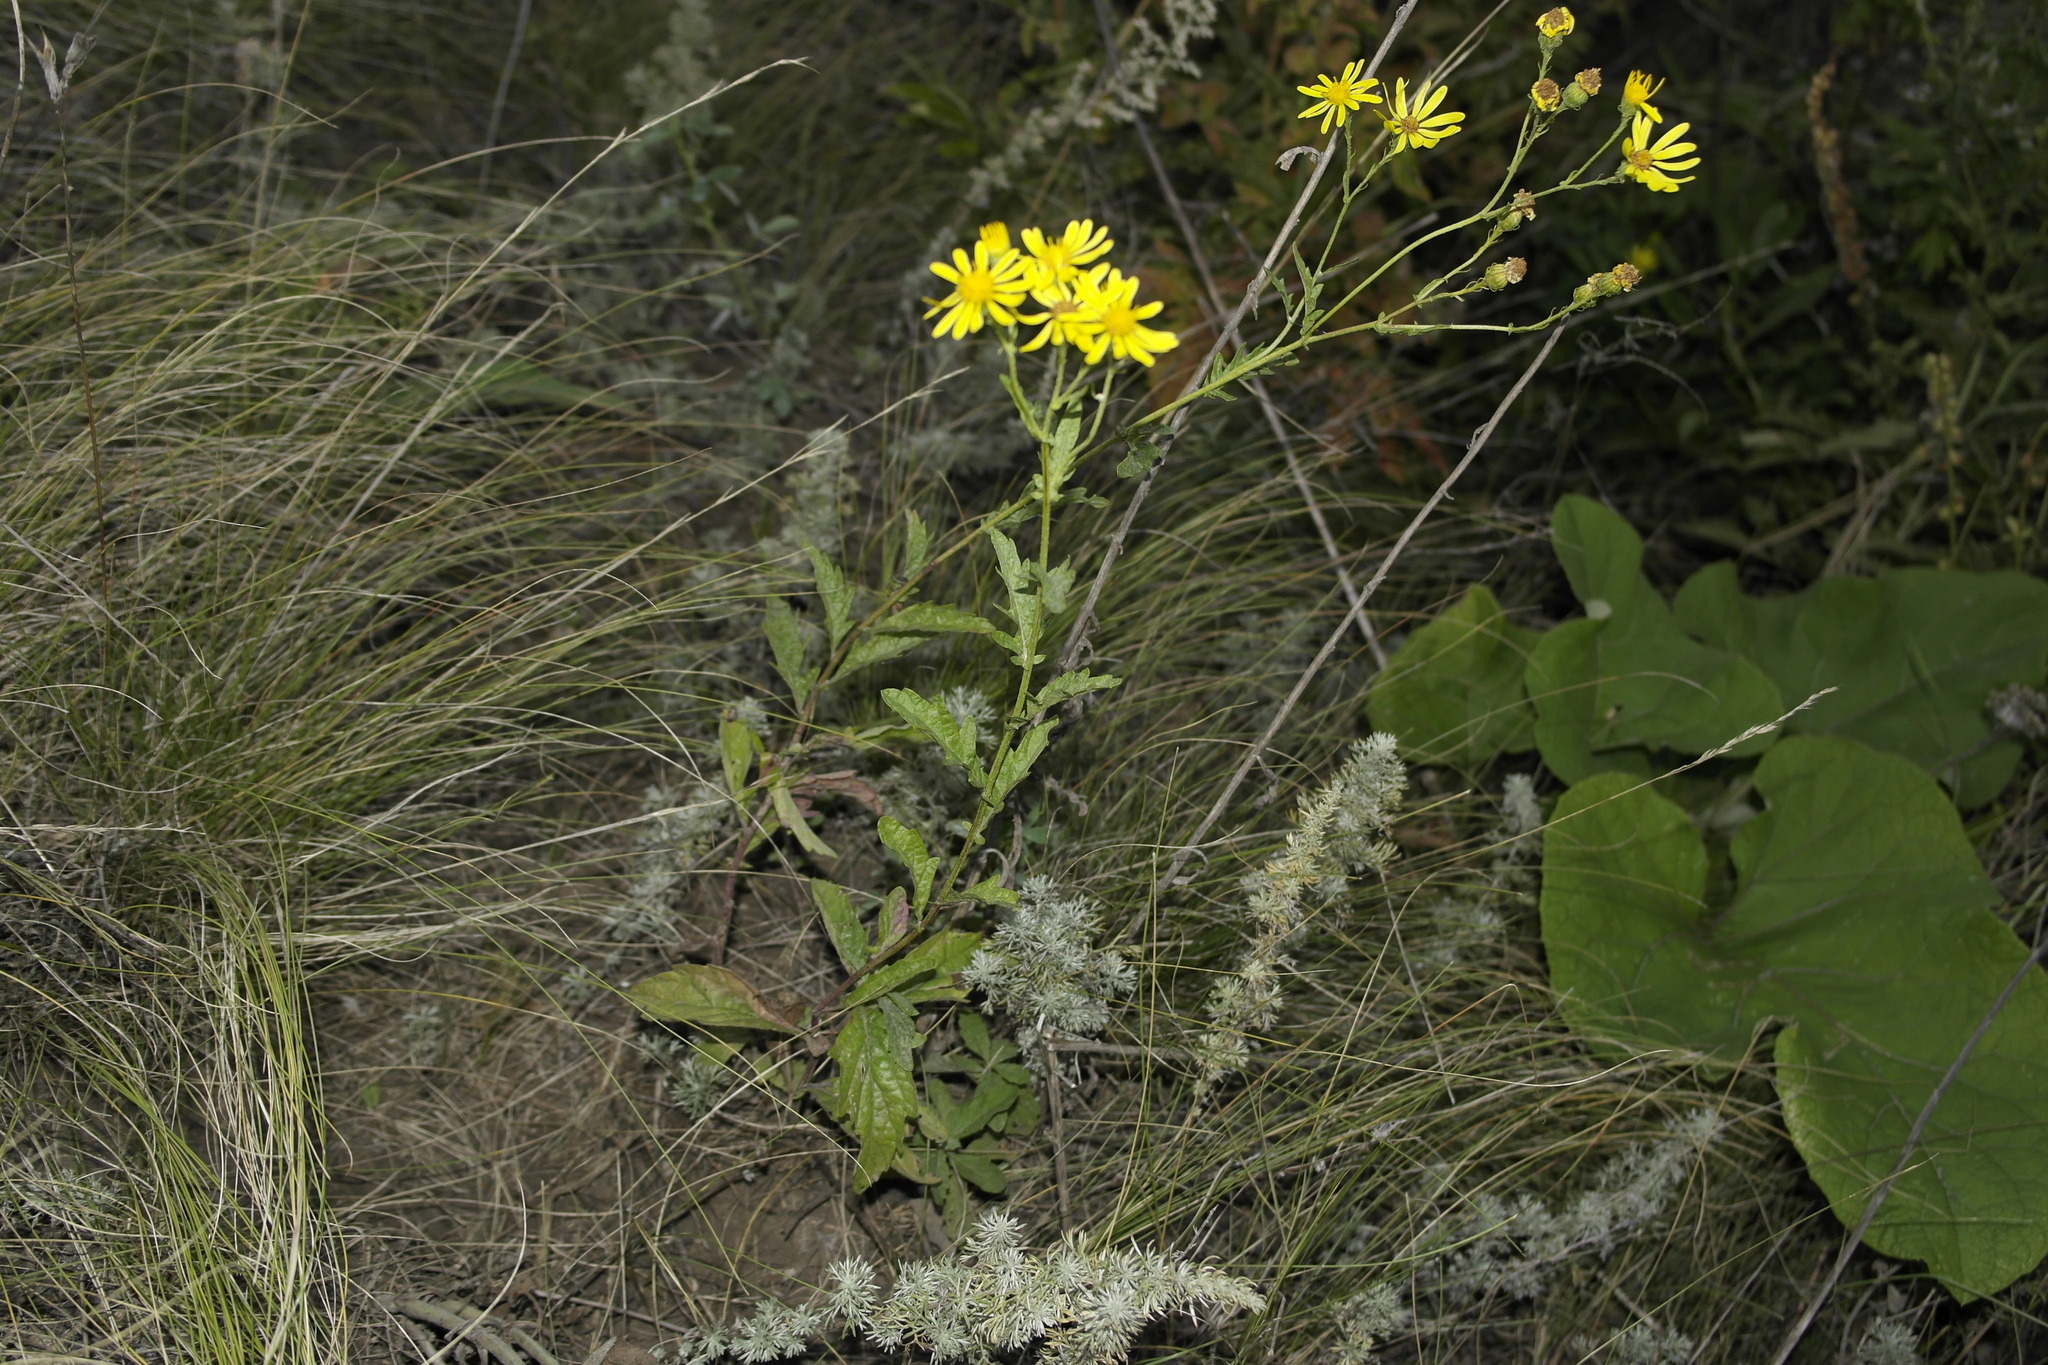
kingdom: Plantae
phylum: Tracheophyta
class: Magnoliopsida
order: Asterales
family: Asteraceae
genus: Jacobaea
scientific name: Jacobaea erucifolia
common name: Hoary ragwort
